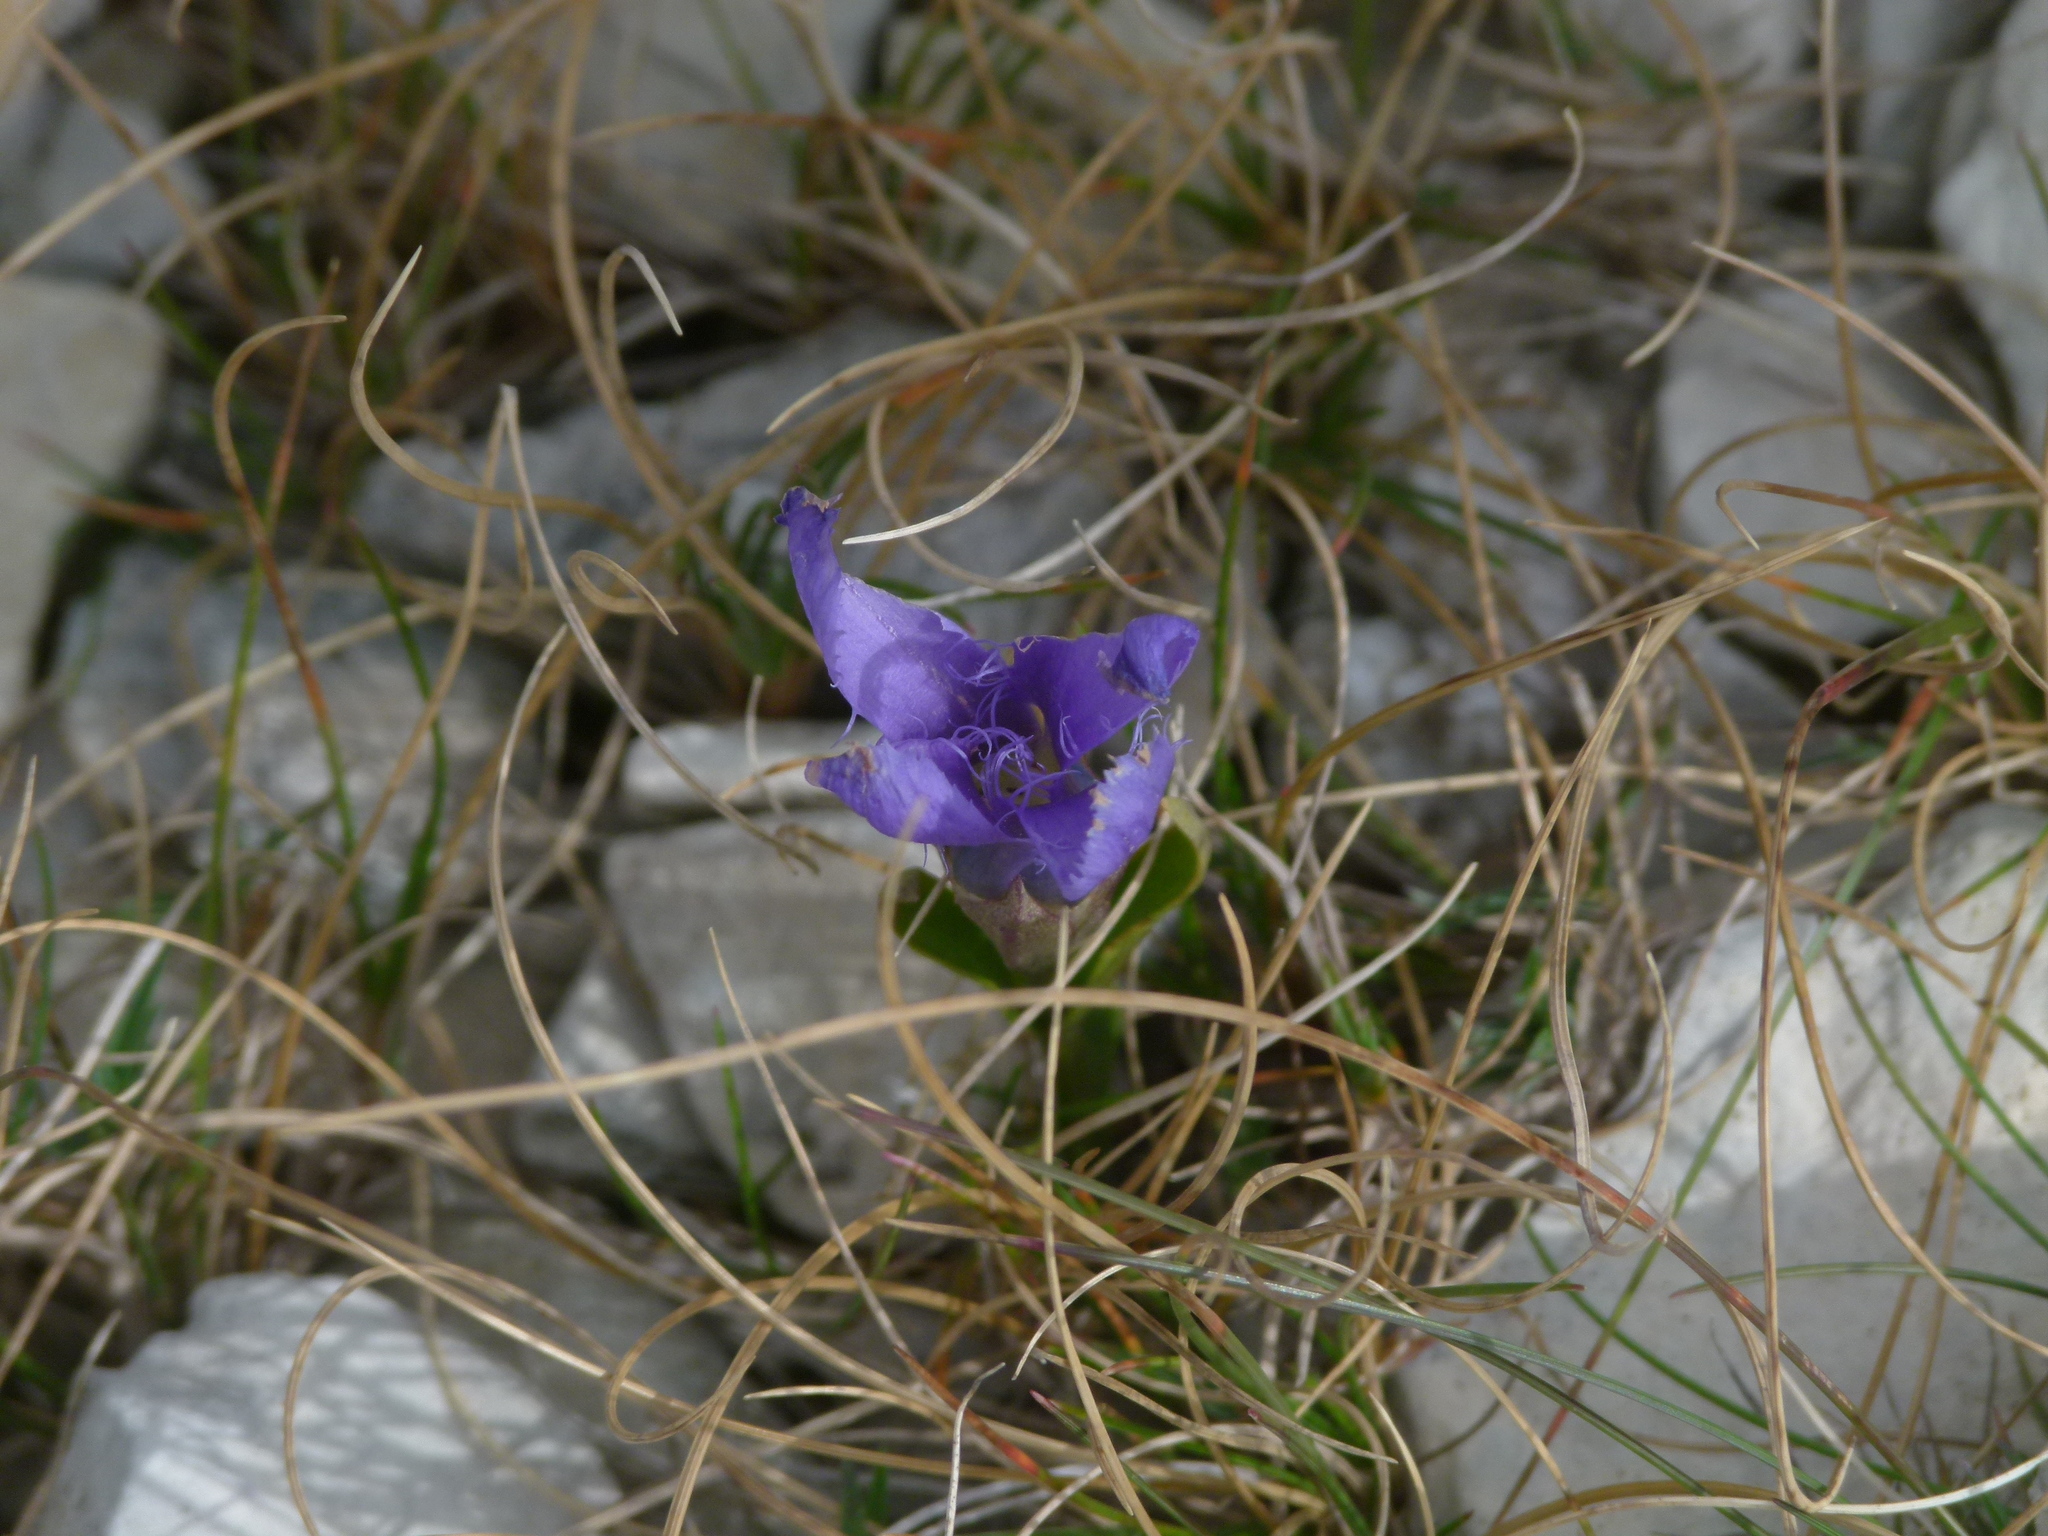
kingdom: Plantae
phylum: Tracheophyta
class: Magnoliopsida
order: Gentianales
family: Gentianaceae
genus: Gentianopsis
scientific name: Gentianopsis ciliata
